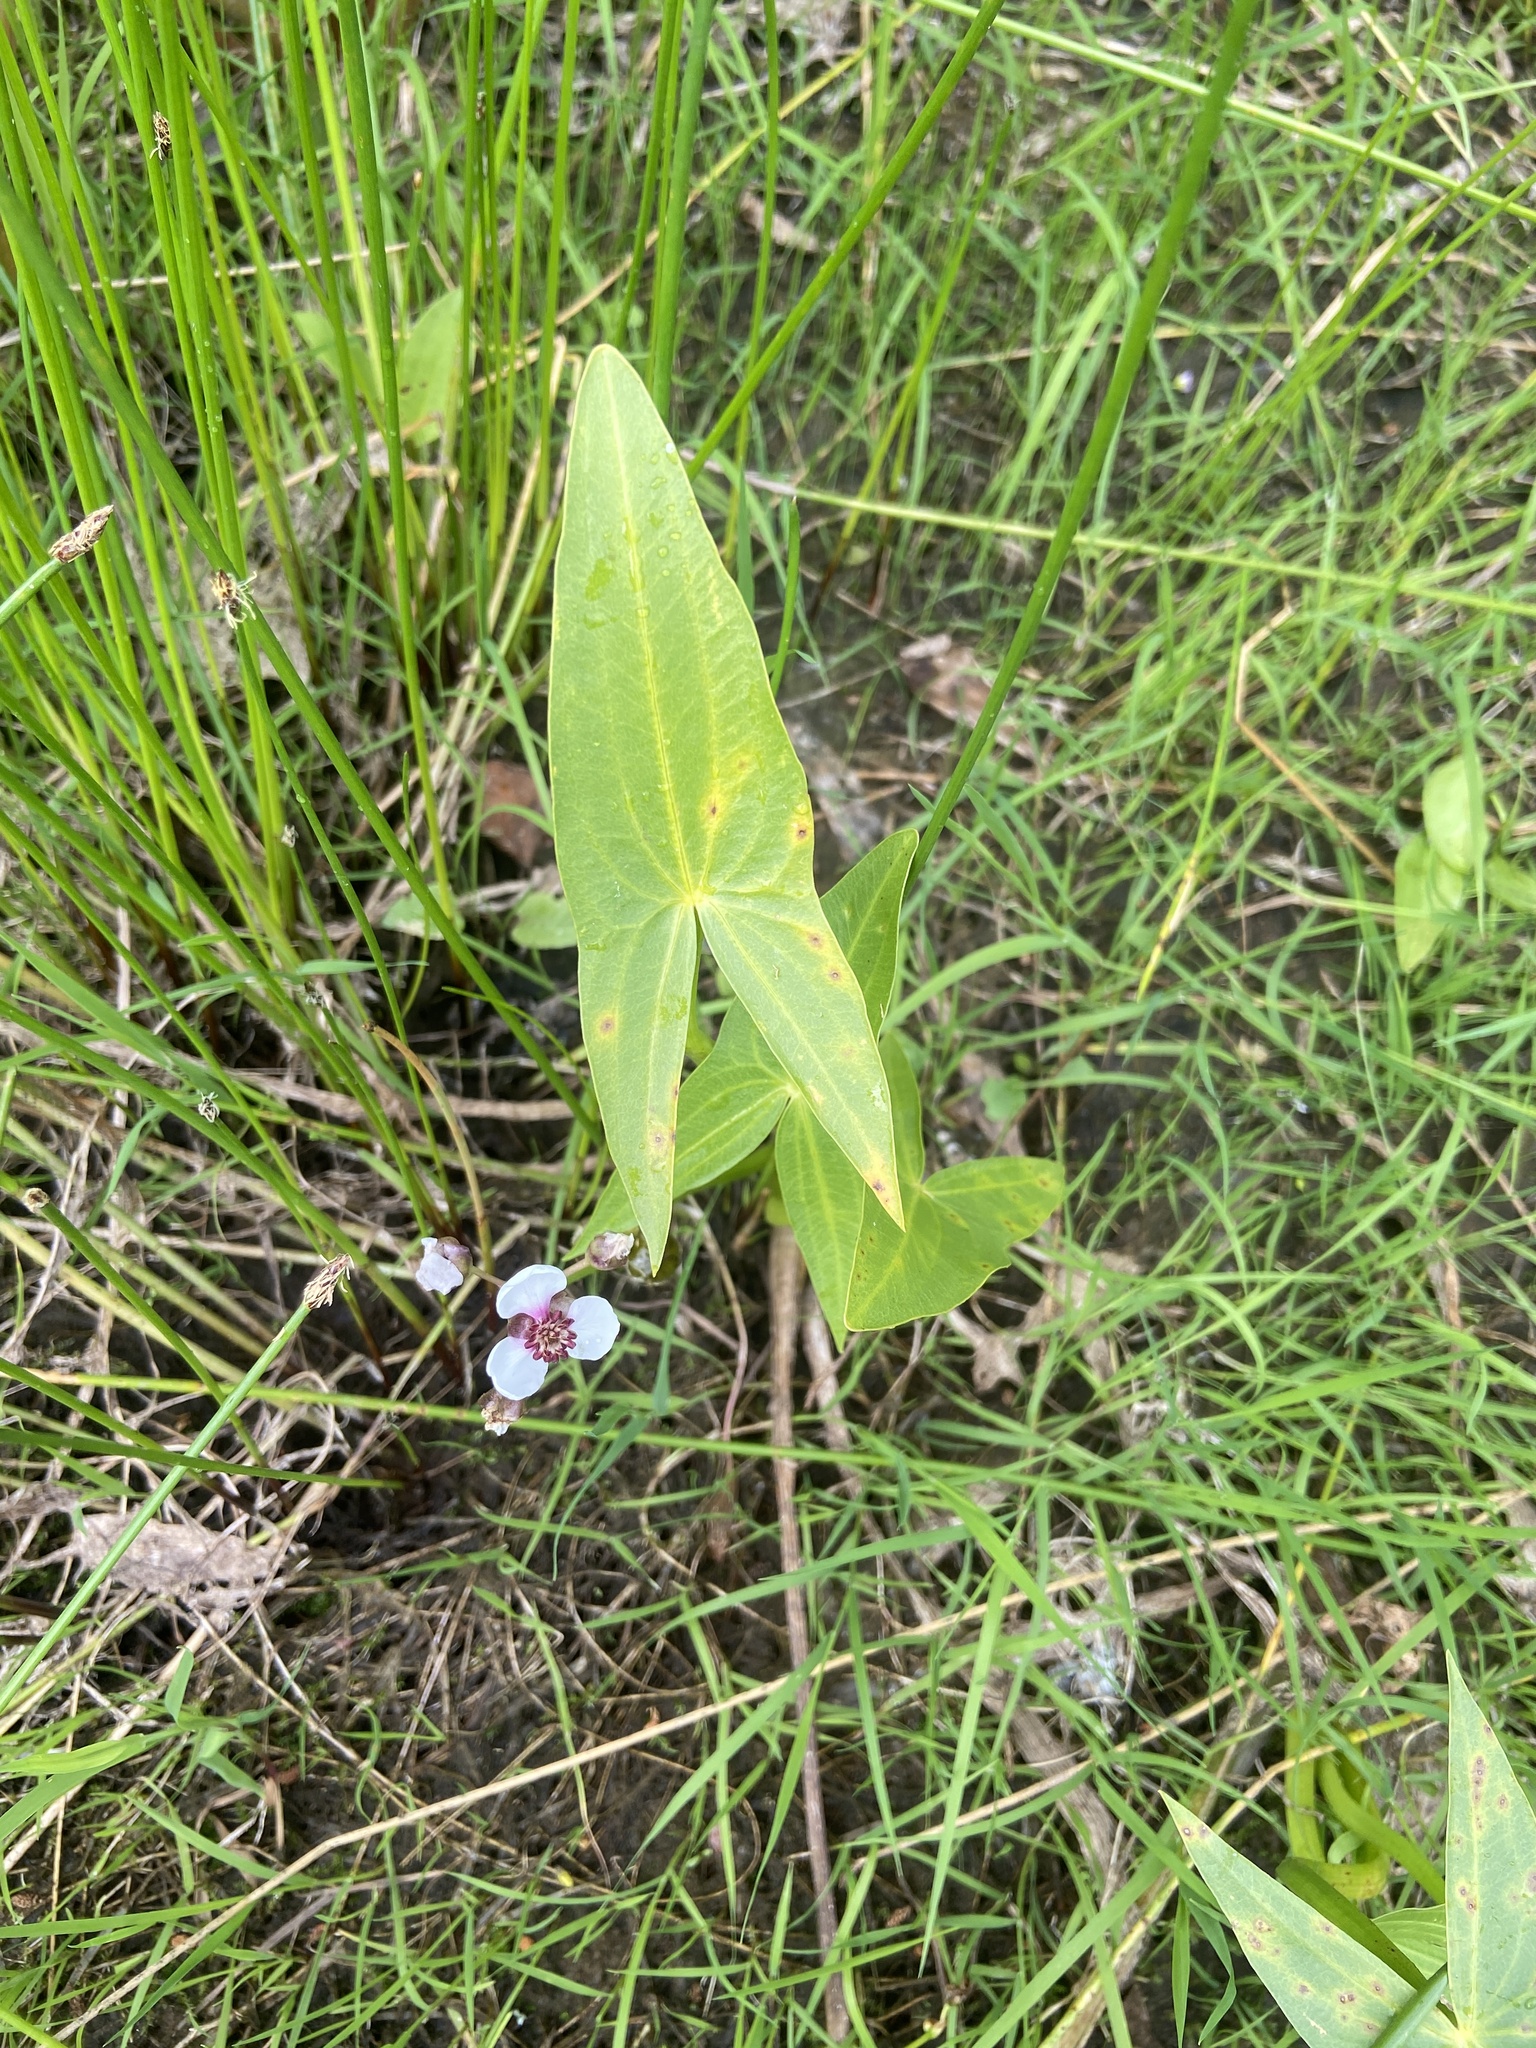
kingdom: Plantae
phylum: Tracheophyta
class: Liliopsida
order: Alismatales
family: Alismataceae
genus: Sagittaria
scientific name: Sagittaria sagittifolia
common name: Arrowhead
